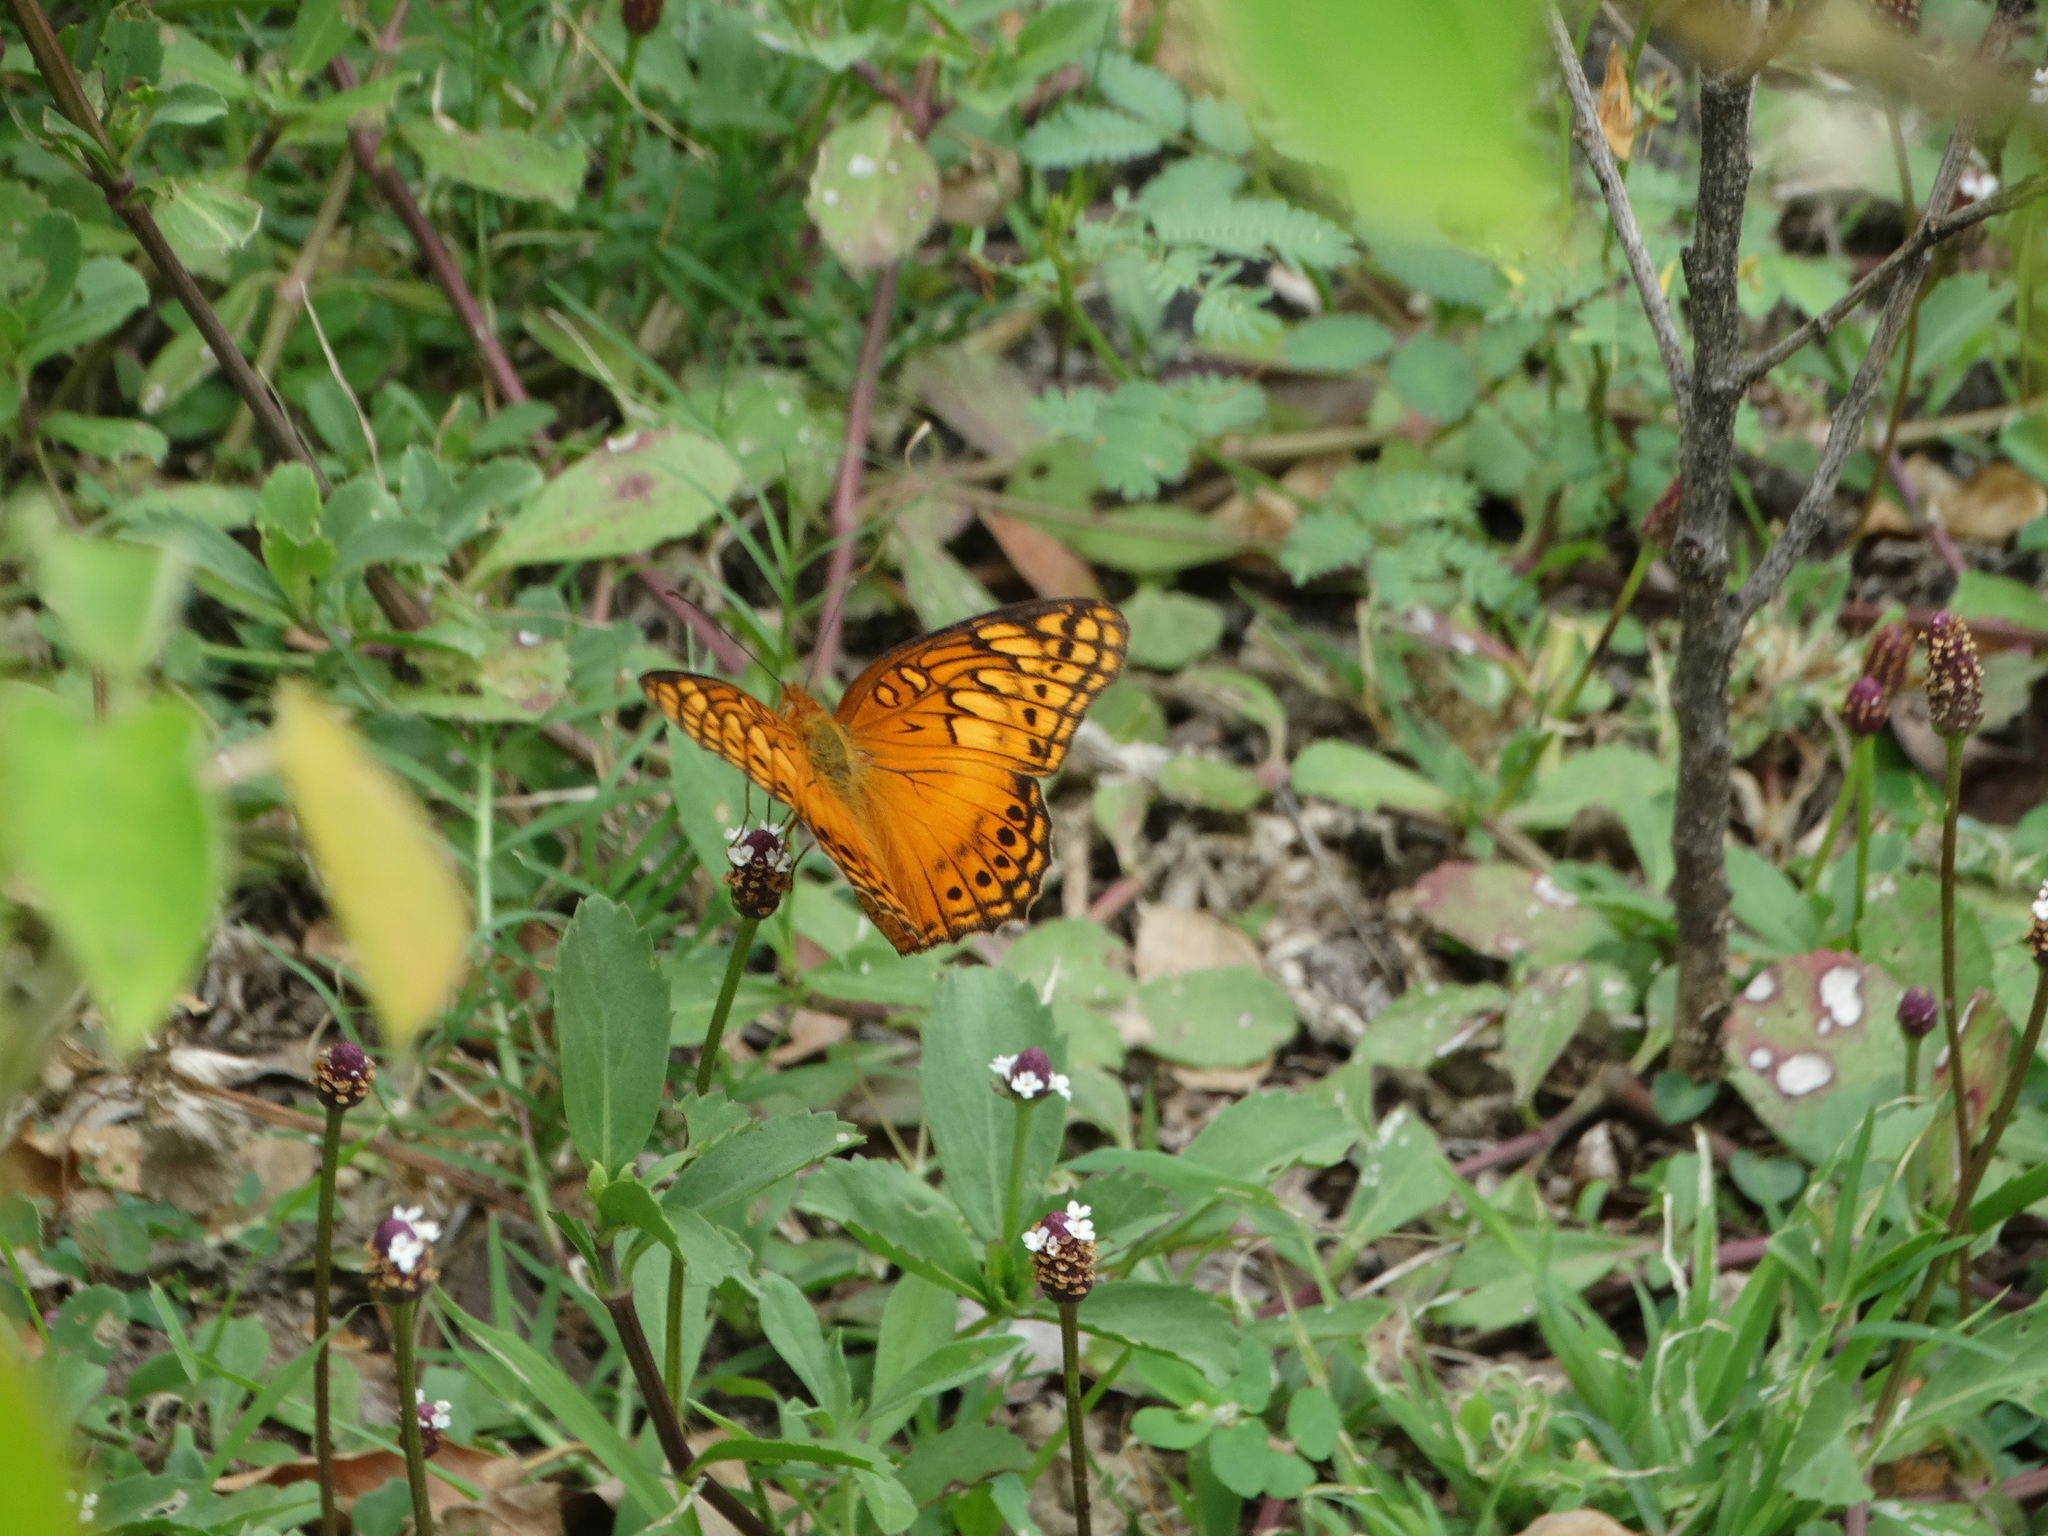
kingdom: Animalia
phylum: Arthropoda
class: Insecta
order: Lepidoptera
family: Nymphalidae
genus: Euptoieta
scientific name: Euptoieta hegesia
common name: Mexican fritillary
